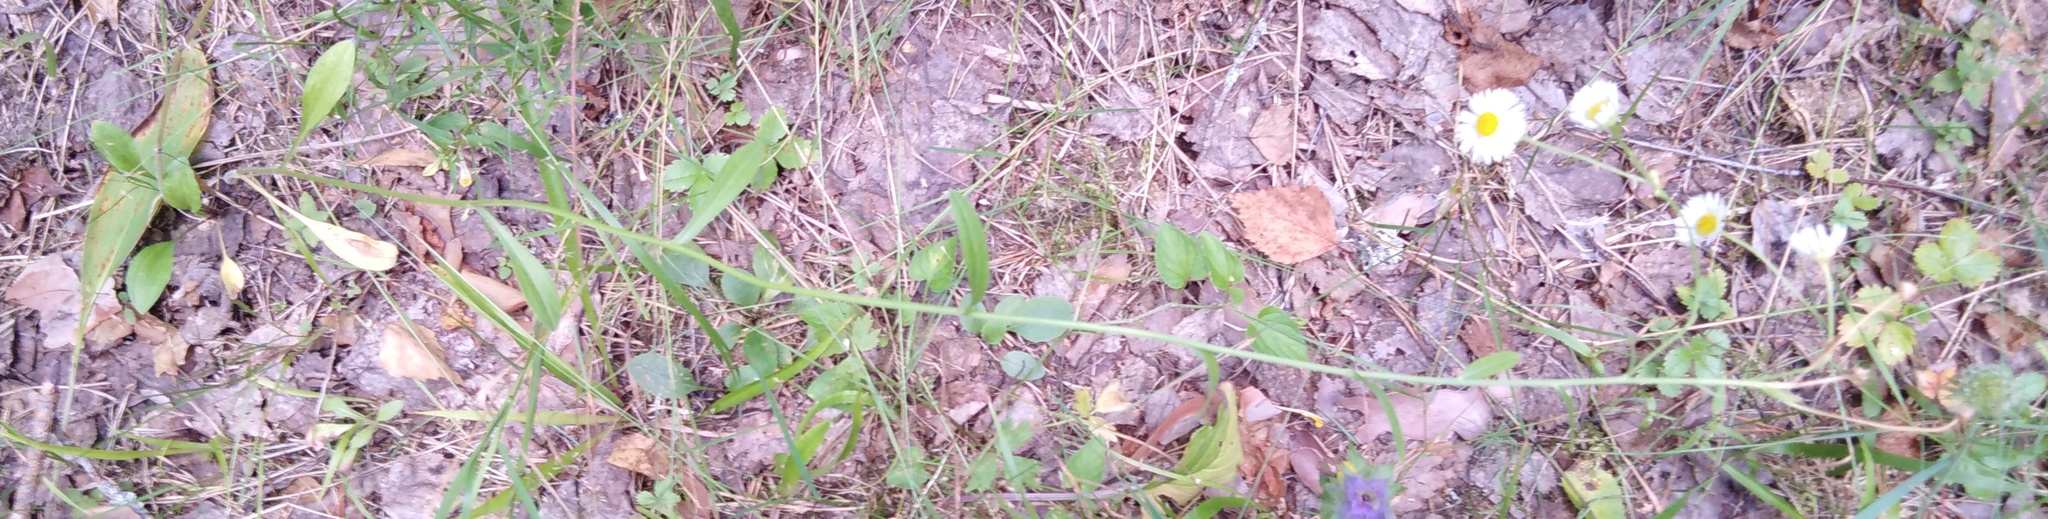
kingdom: Plantae
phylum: Tracheophyta
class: Magnoliopsida
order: Asterales
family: Asteraceae
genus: Erigeron
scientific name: Erigeron annuus
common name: Tall fleabane
